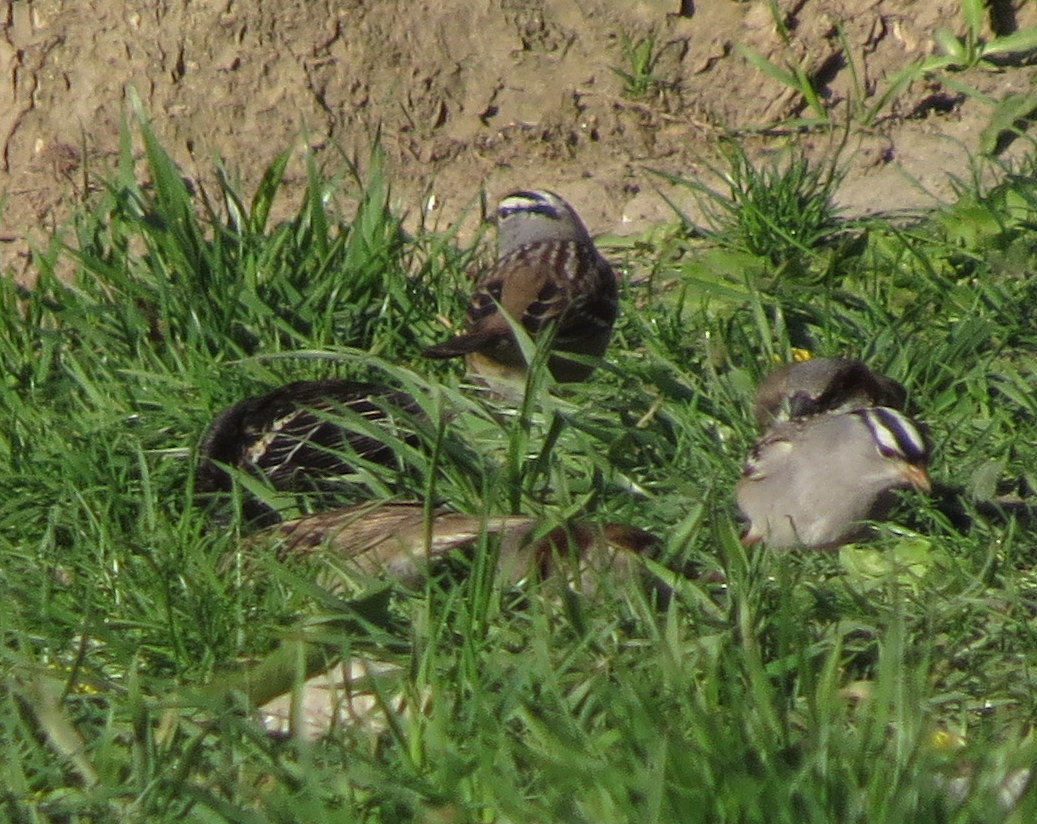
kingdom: Animalia
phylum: Chordata
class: Aves
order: Passeriformes
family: Passerellidae
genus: Zonotrichia
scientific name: Zonotrichia leucophrys
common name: White-crowned sparrow
